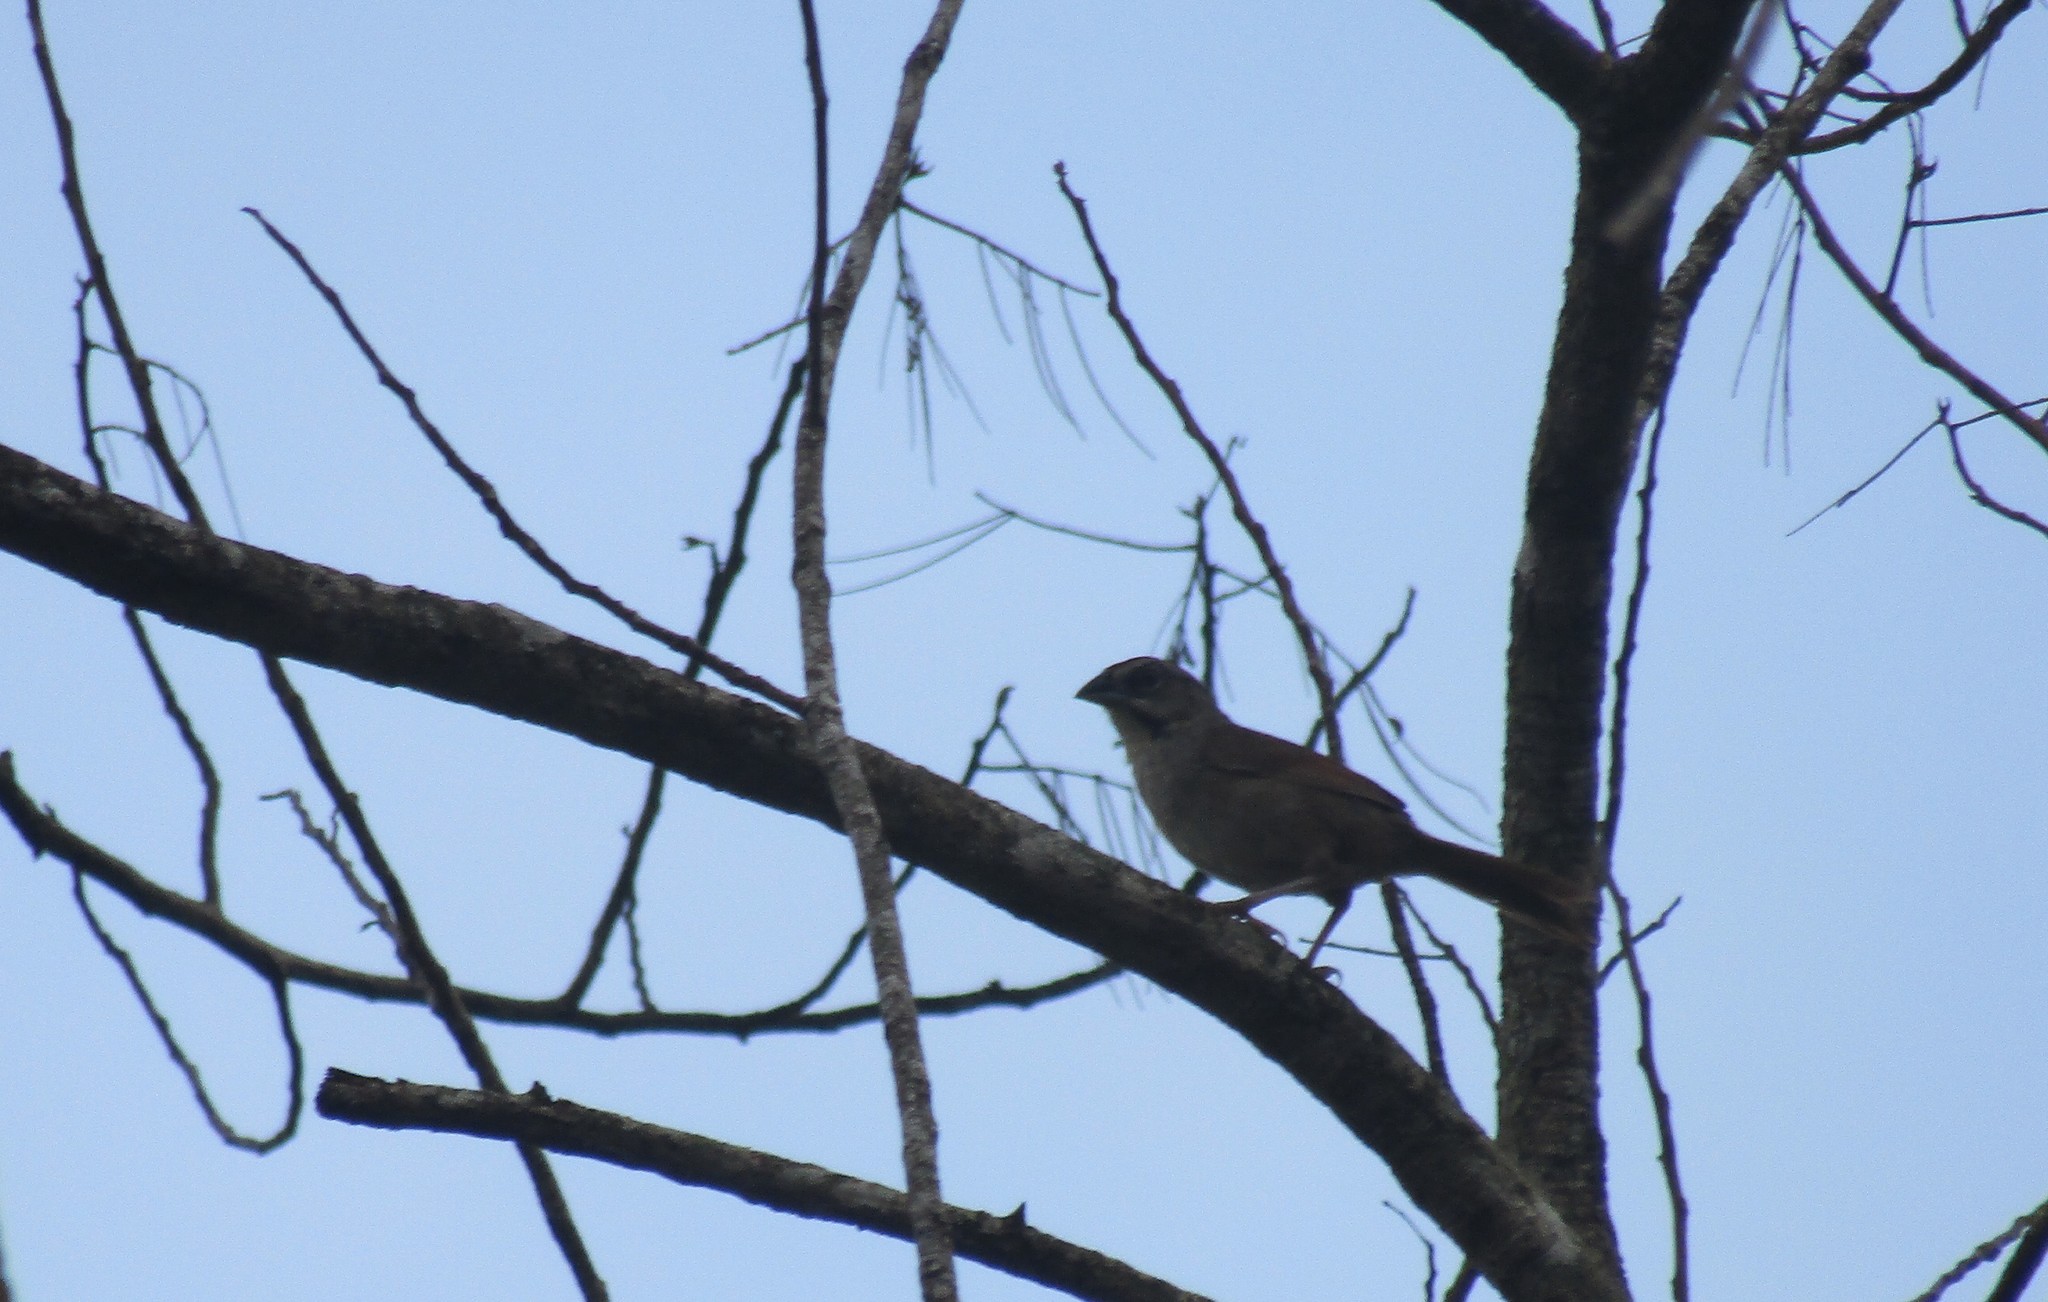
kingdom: Animalia
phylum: Chordata
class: Aves
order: Passeriformes
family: Passerellidae
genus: Peucaea
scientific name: Peucaea sumichrasti
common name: Cinnamon-tailed sparrow
